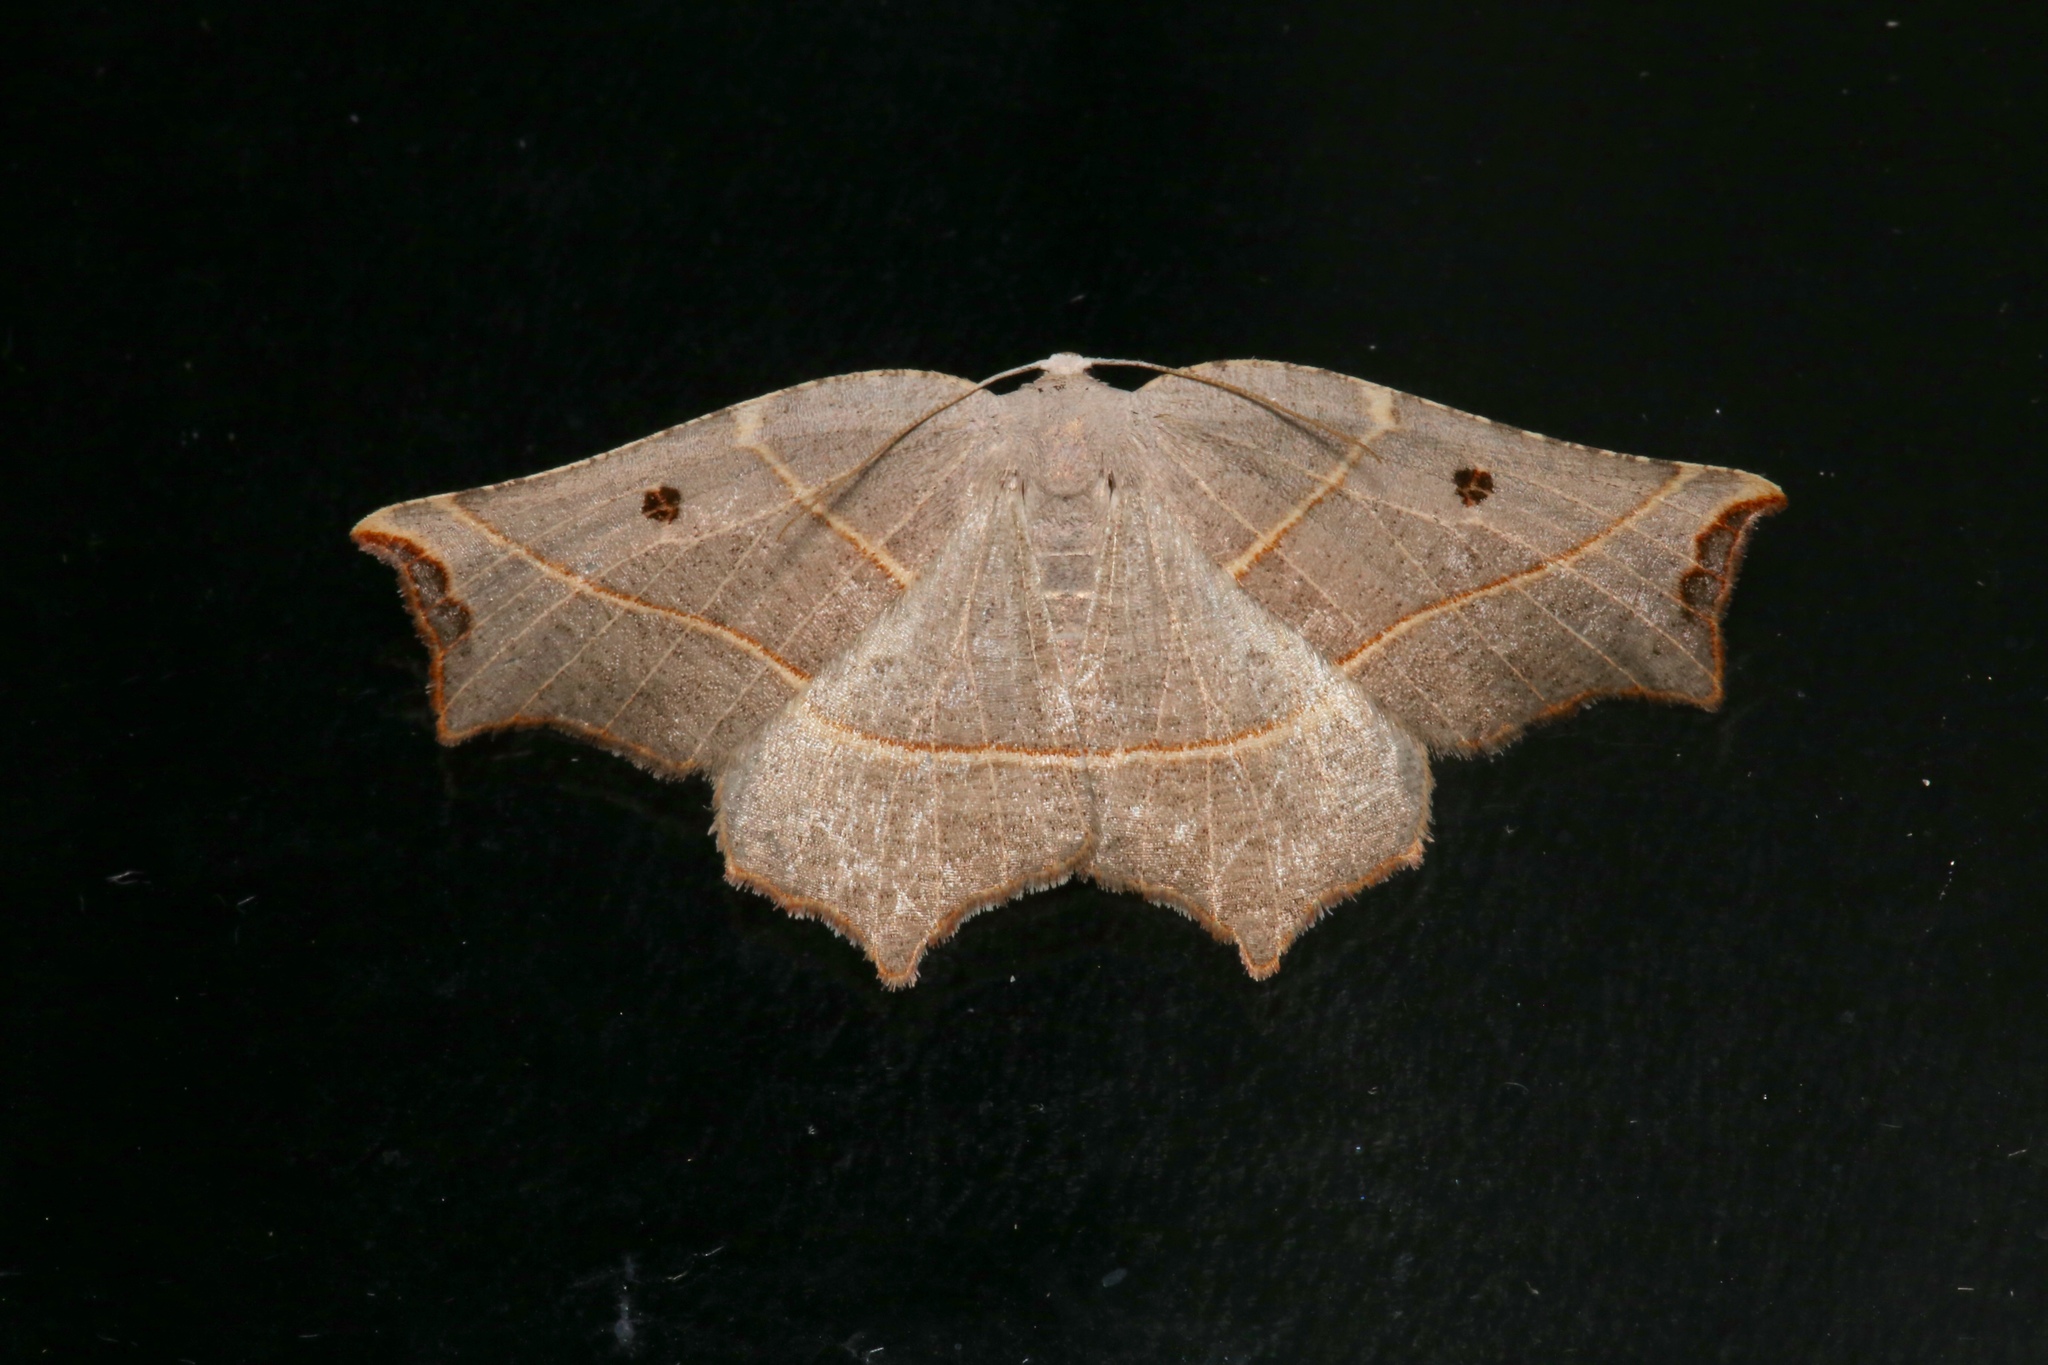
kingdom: Animalia
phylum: Arthropoda
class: Insecta
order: Lepidoptera
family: Geometridae
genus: Metanema
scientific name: Metanema inatomaria
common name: Pale metanema
